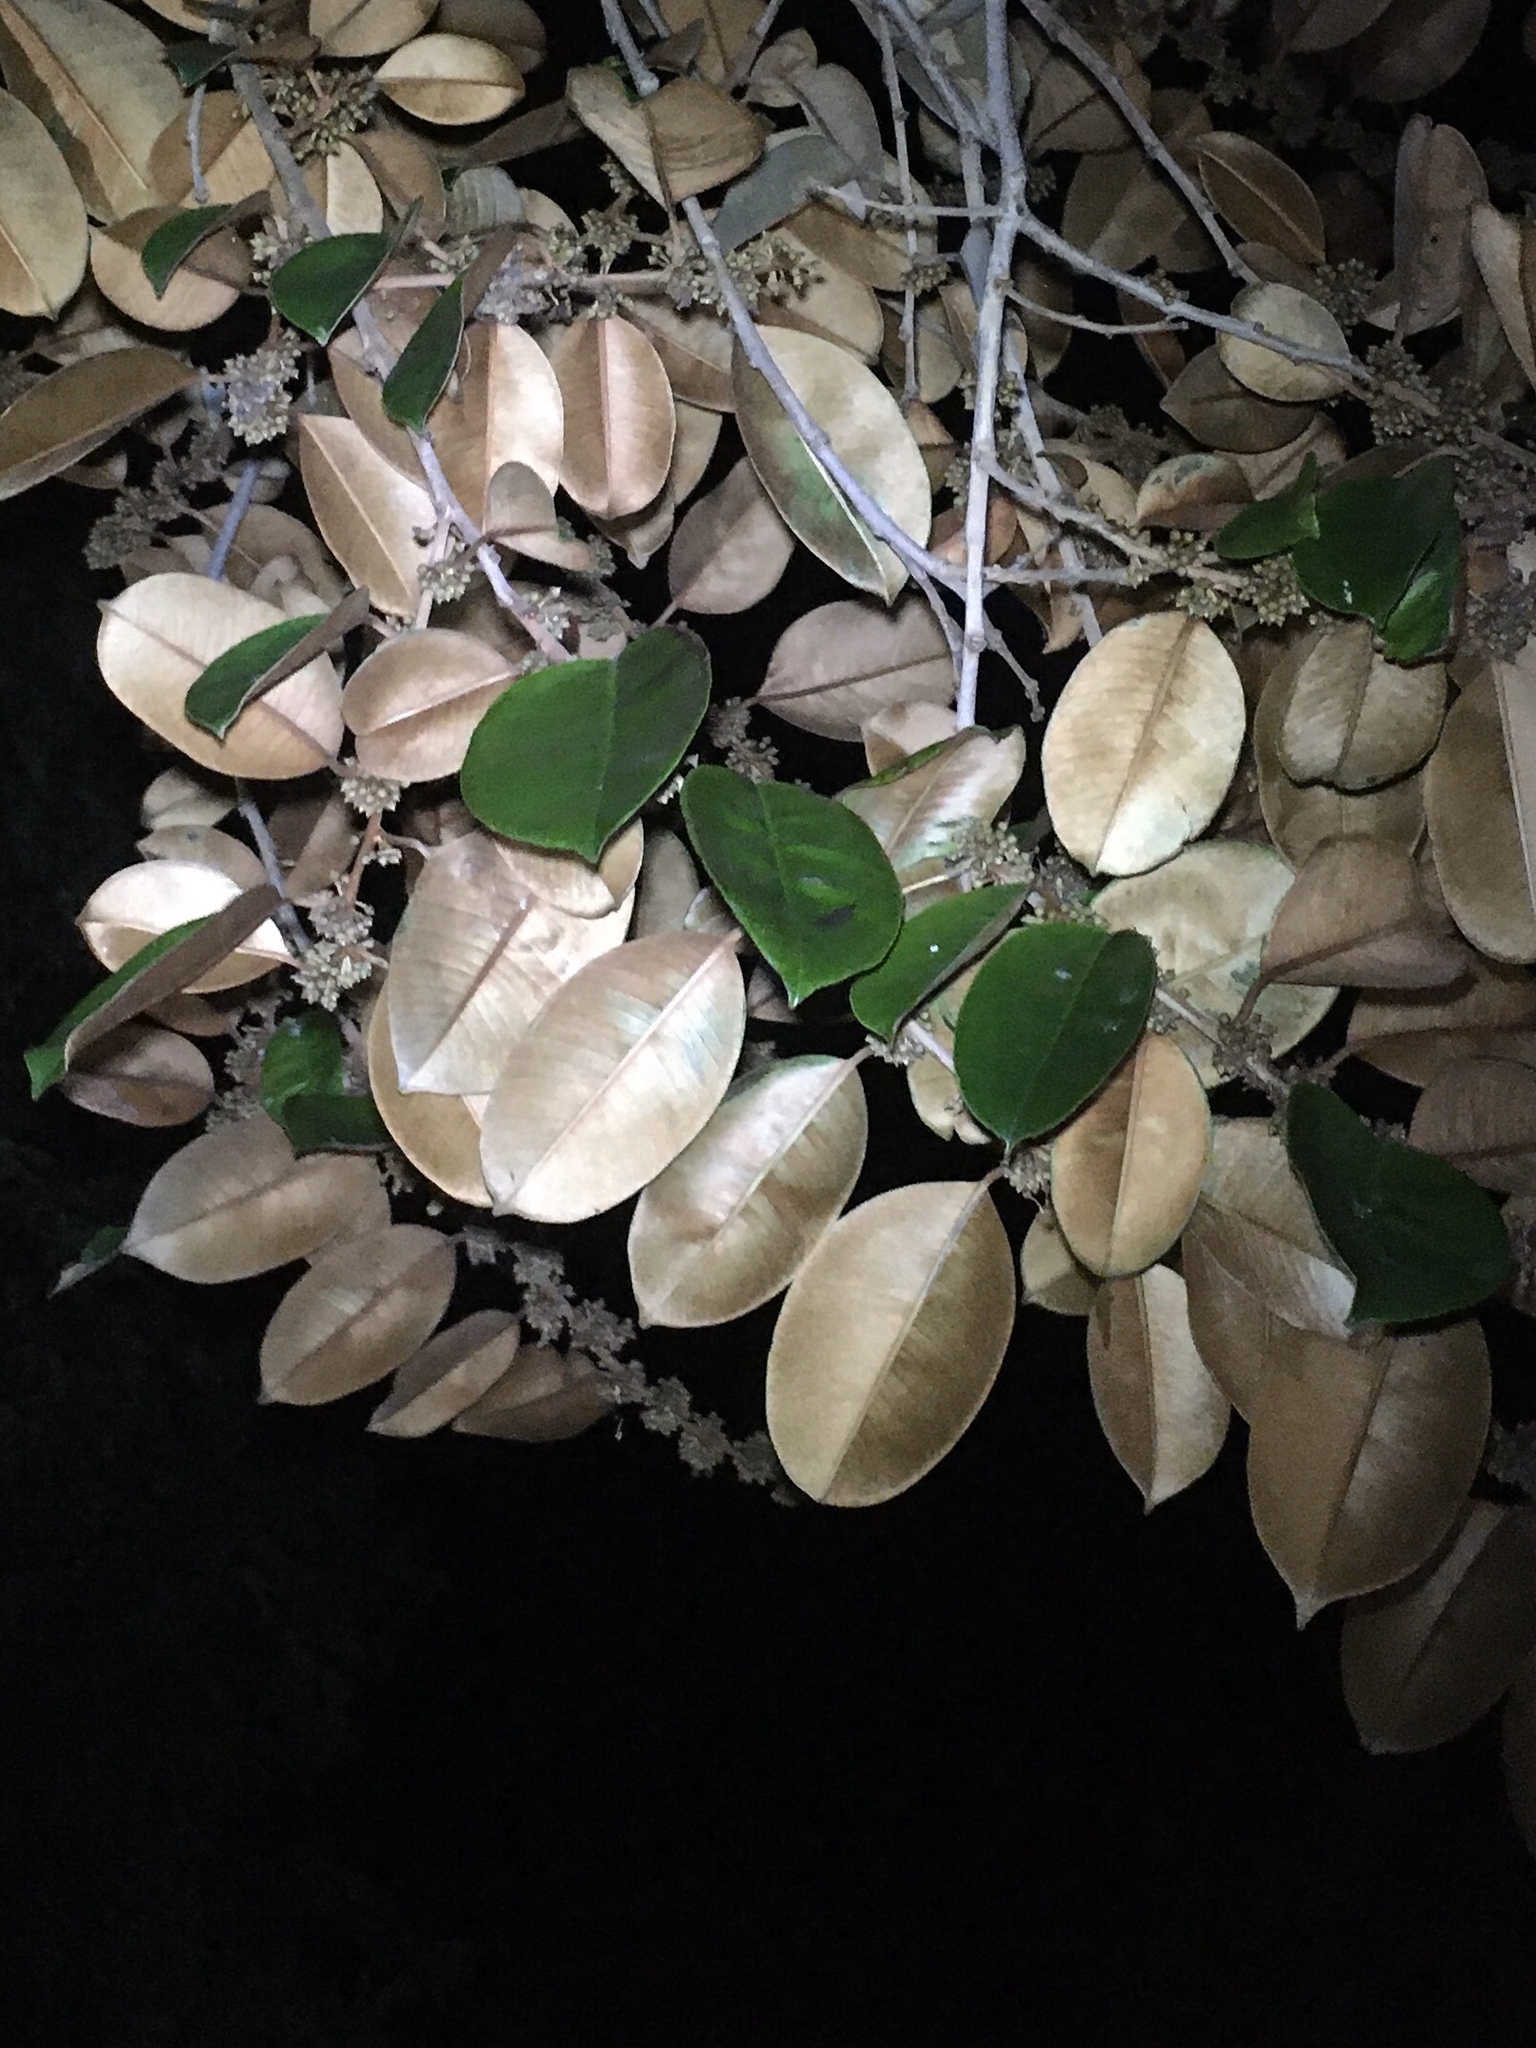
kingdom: Plantae
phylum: Tracheophyta
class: Magnoliopsida
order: Ericales
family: Sapotaceae
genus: Chrysophyllum
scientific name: Chrysophyllum oliviforme
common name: Satinleaf
